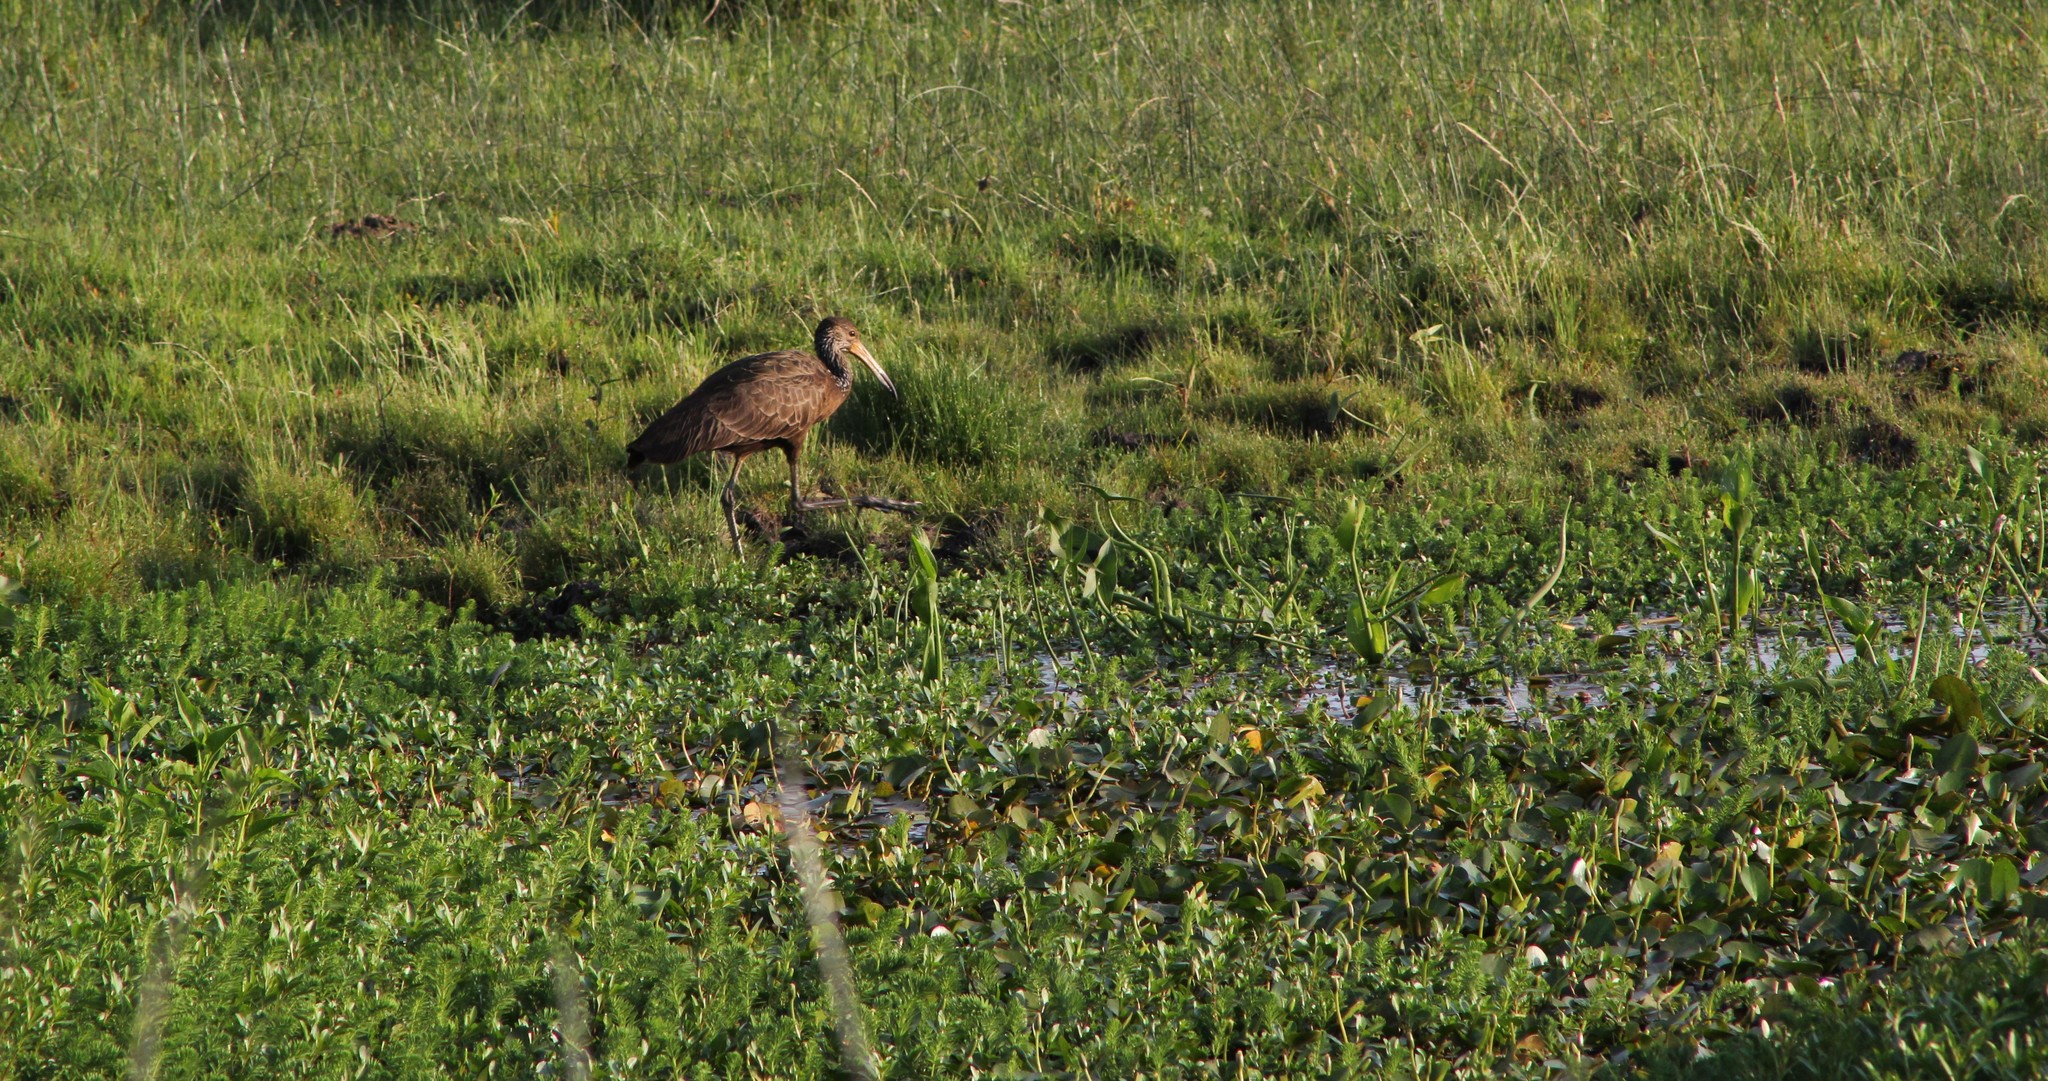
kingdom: Animalia
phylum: Chordata
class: Aves
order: Gruiformes
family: Aramidae
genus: Aramus
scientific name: Aramus guarauna
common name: Limpkin
